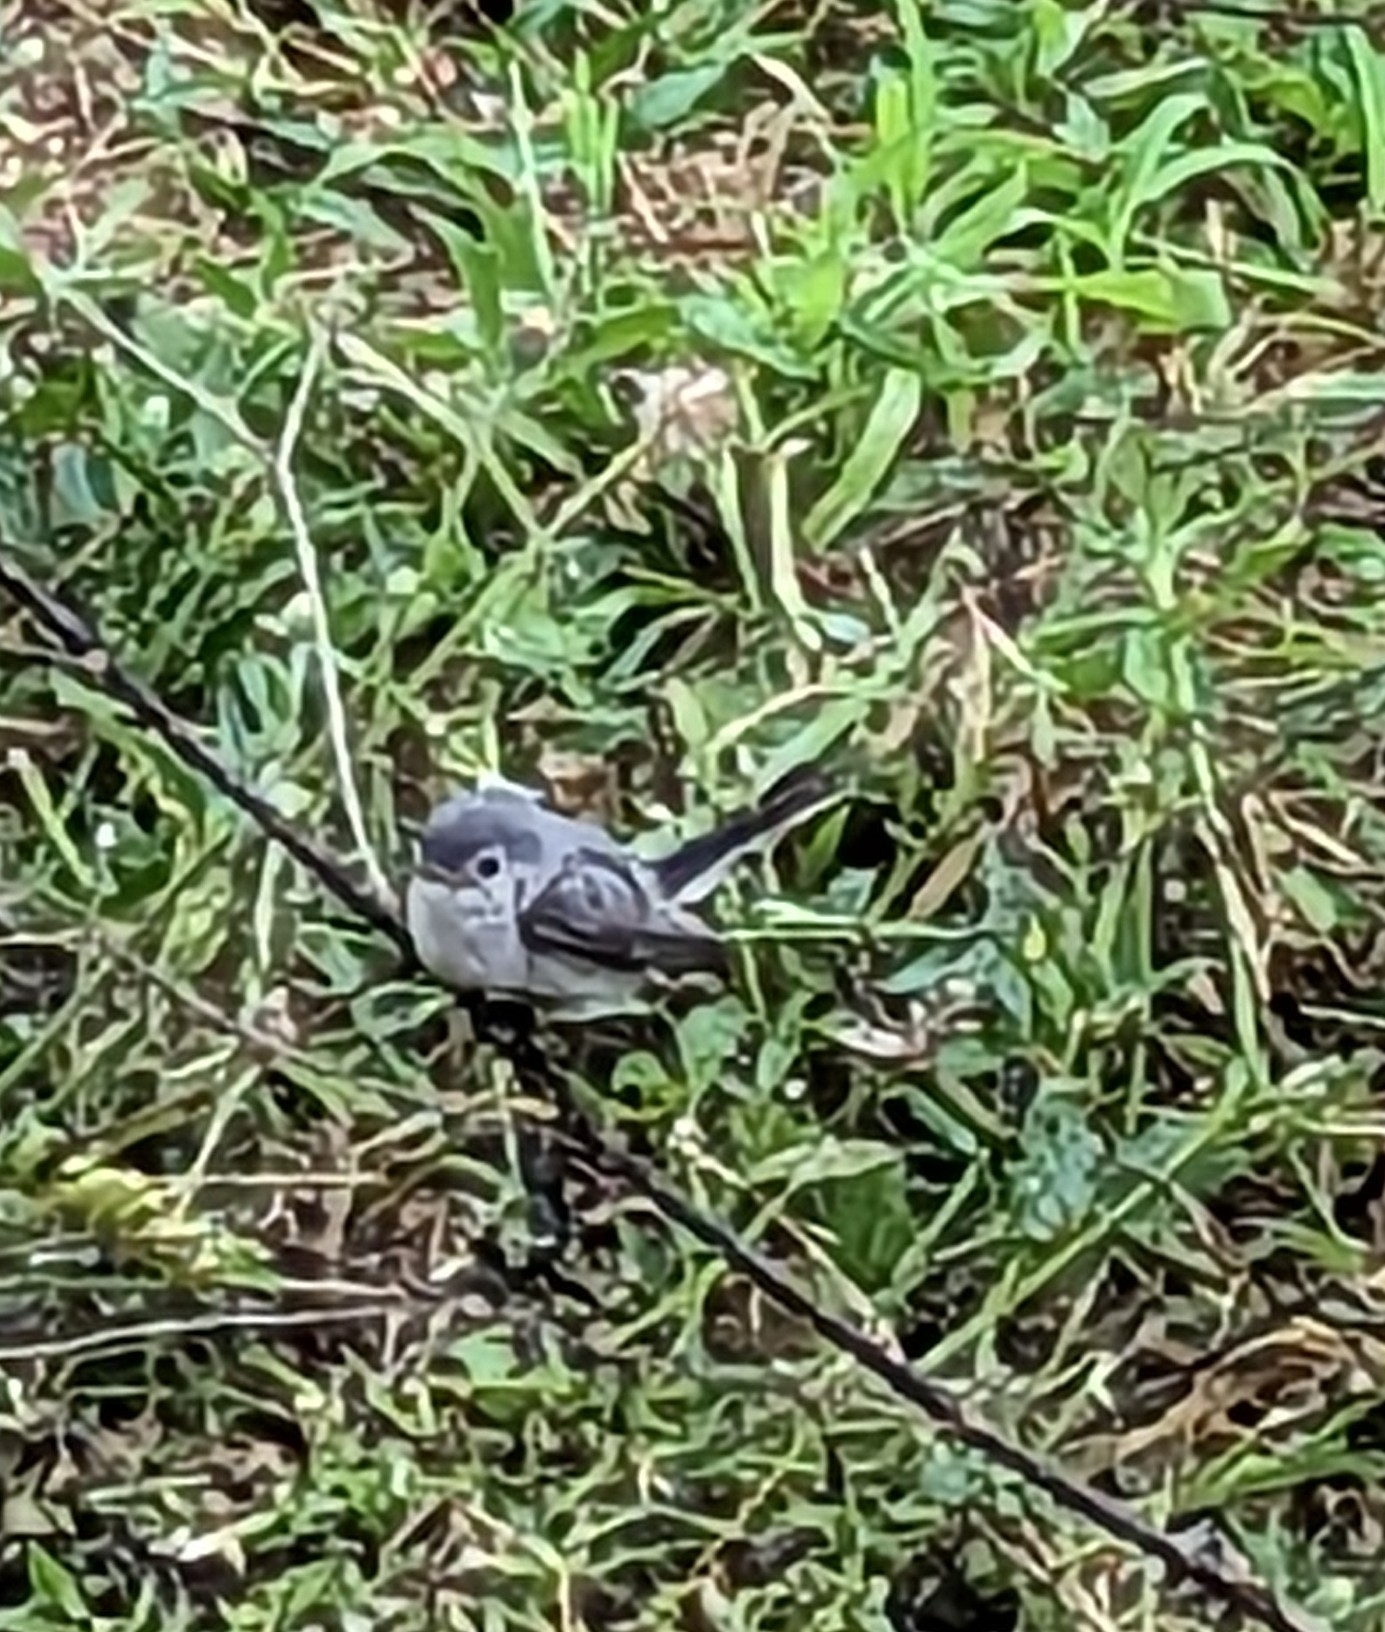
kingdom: Animalia
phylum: Chordata
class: Aves
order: Passeriformes
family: Polioptilidae
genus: Polioptila
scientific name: Polioptila caerulea
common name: Blue-gray gnatcatcher
